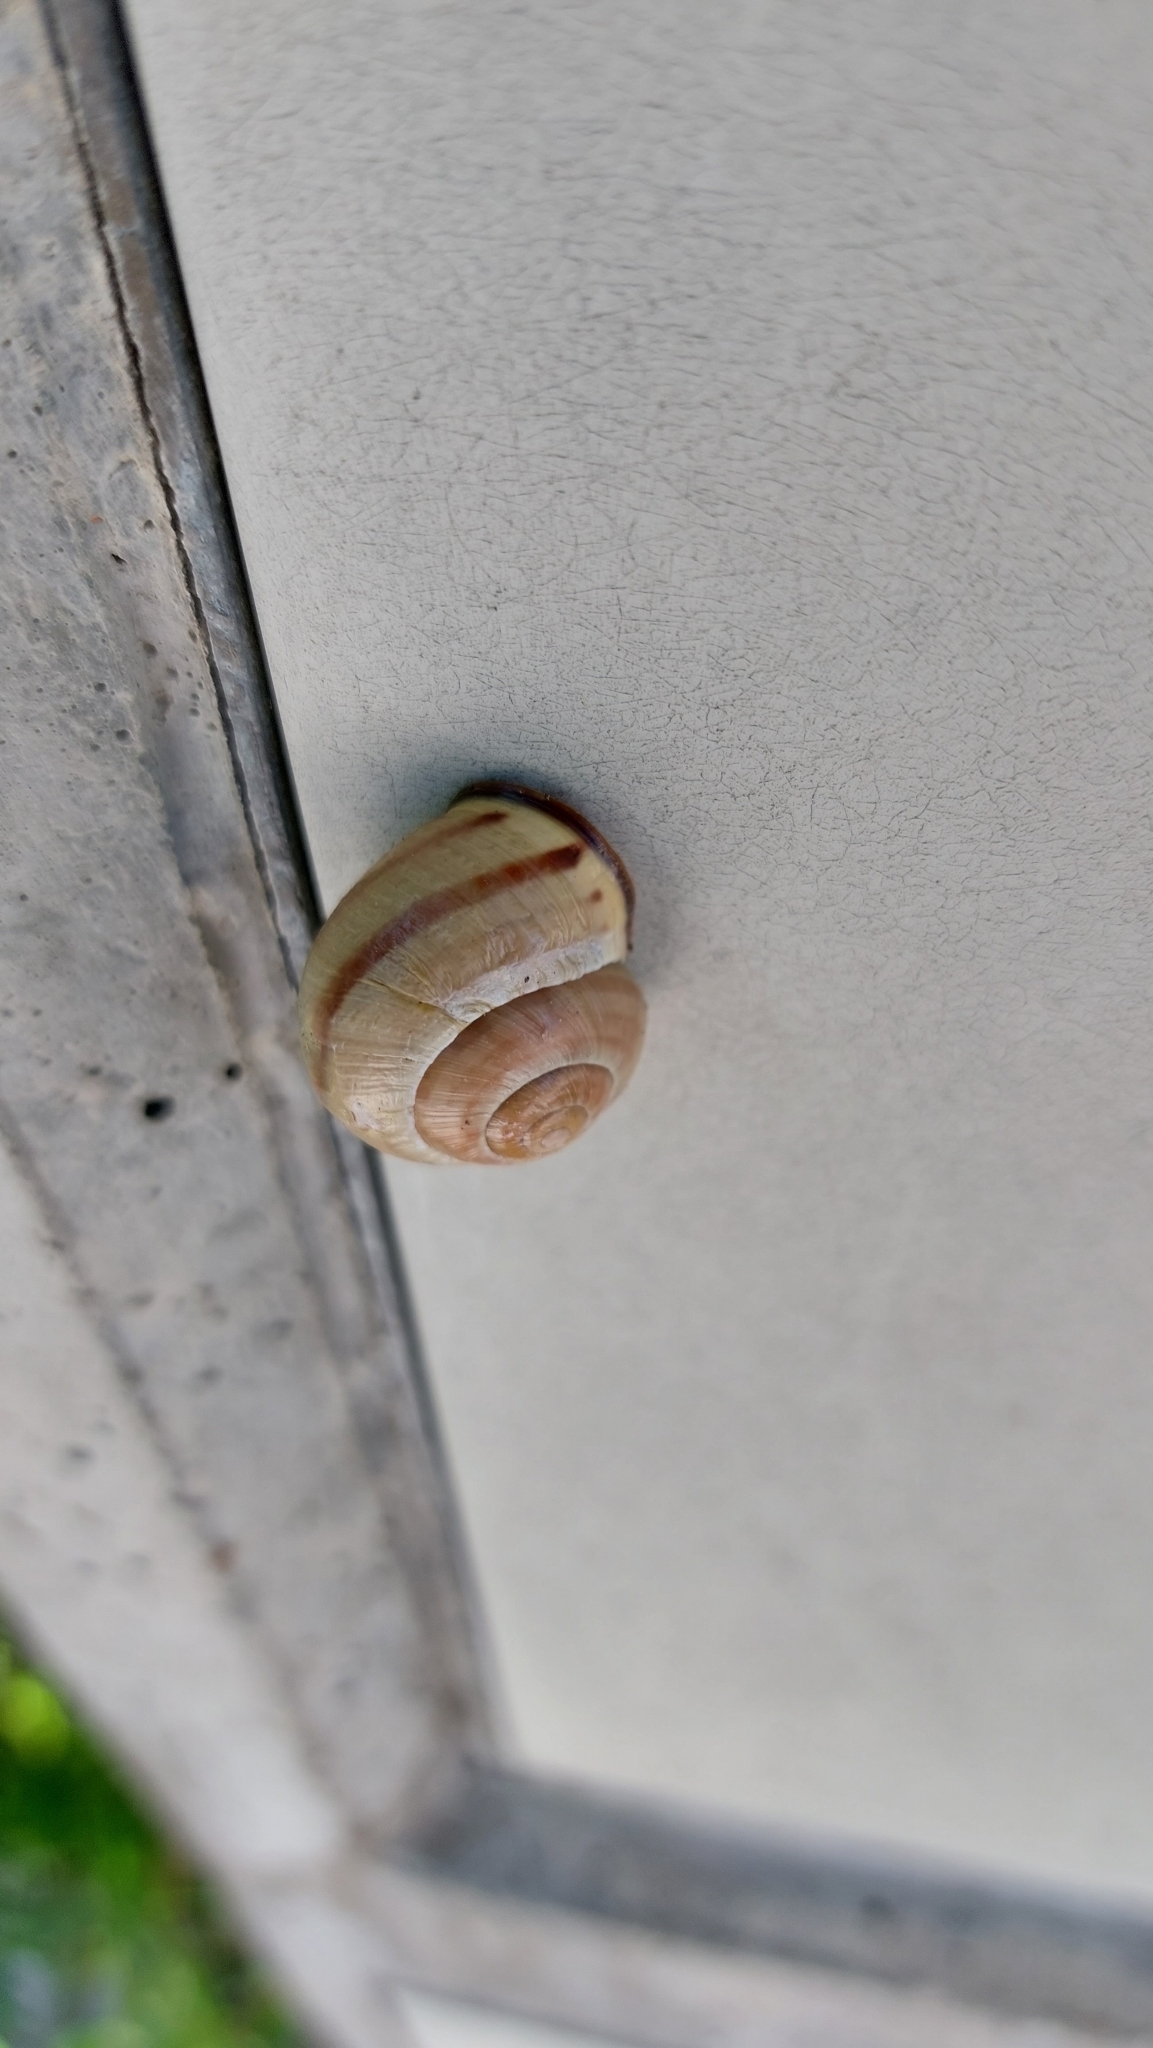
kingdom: Animalia
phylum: Mollusca
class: Gastropoda
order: Stylommatophora
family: Helicidae
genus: Cepaea
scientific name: Cepaea nemoralis
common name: Grovesnail
